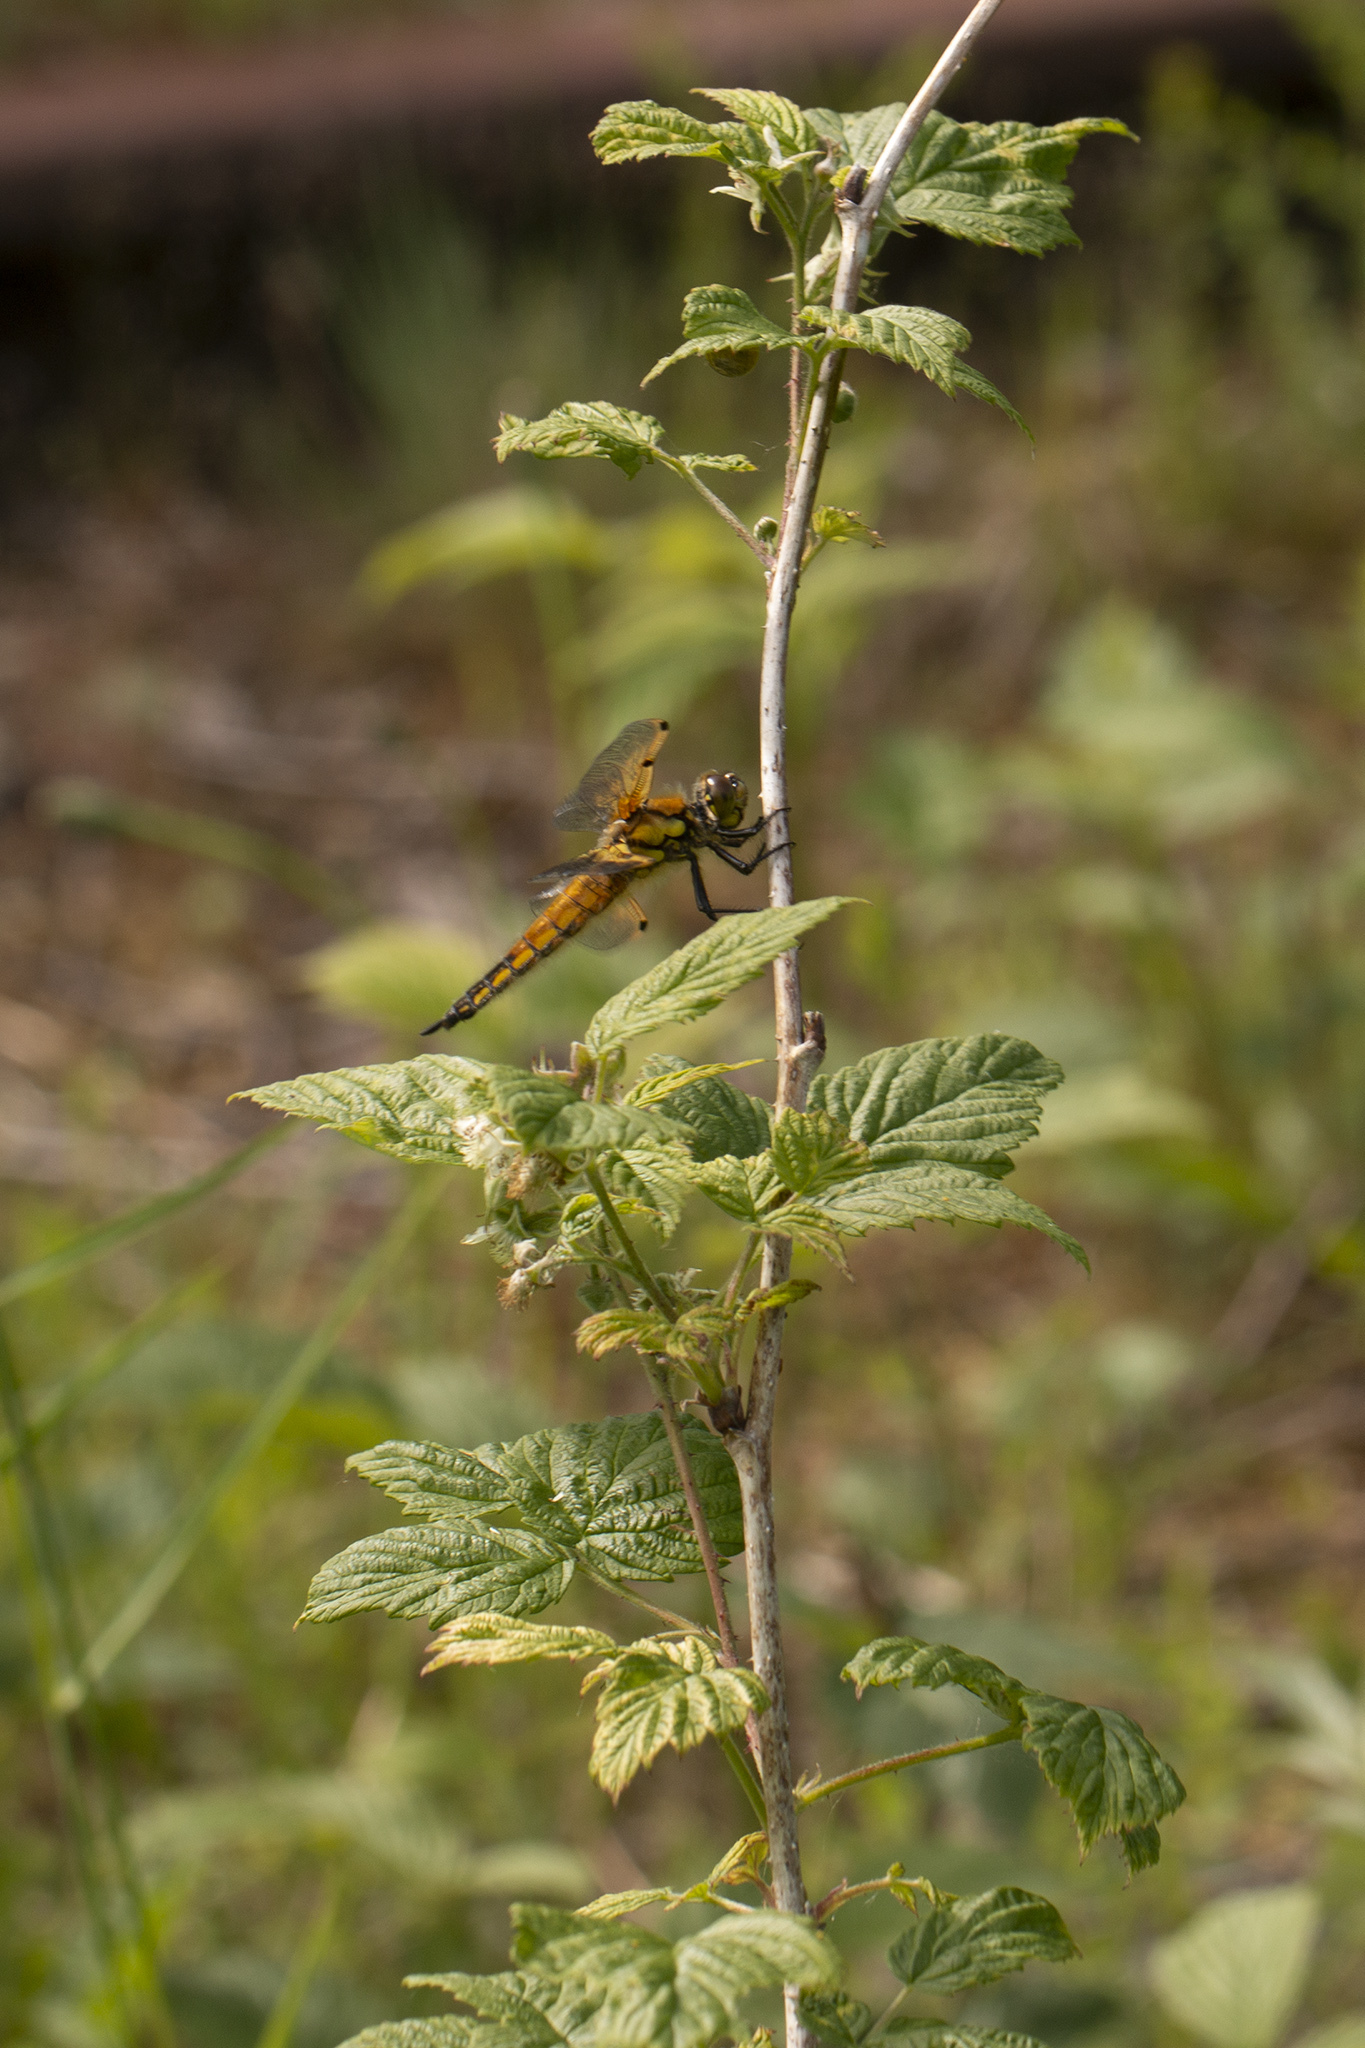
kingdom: Animalia
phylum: Arthropoda
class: Insecta
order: Odonata
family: Libellulidae
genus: Libellula
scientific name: Libellula quadrimaculata
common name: Four-spotted chaser
